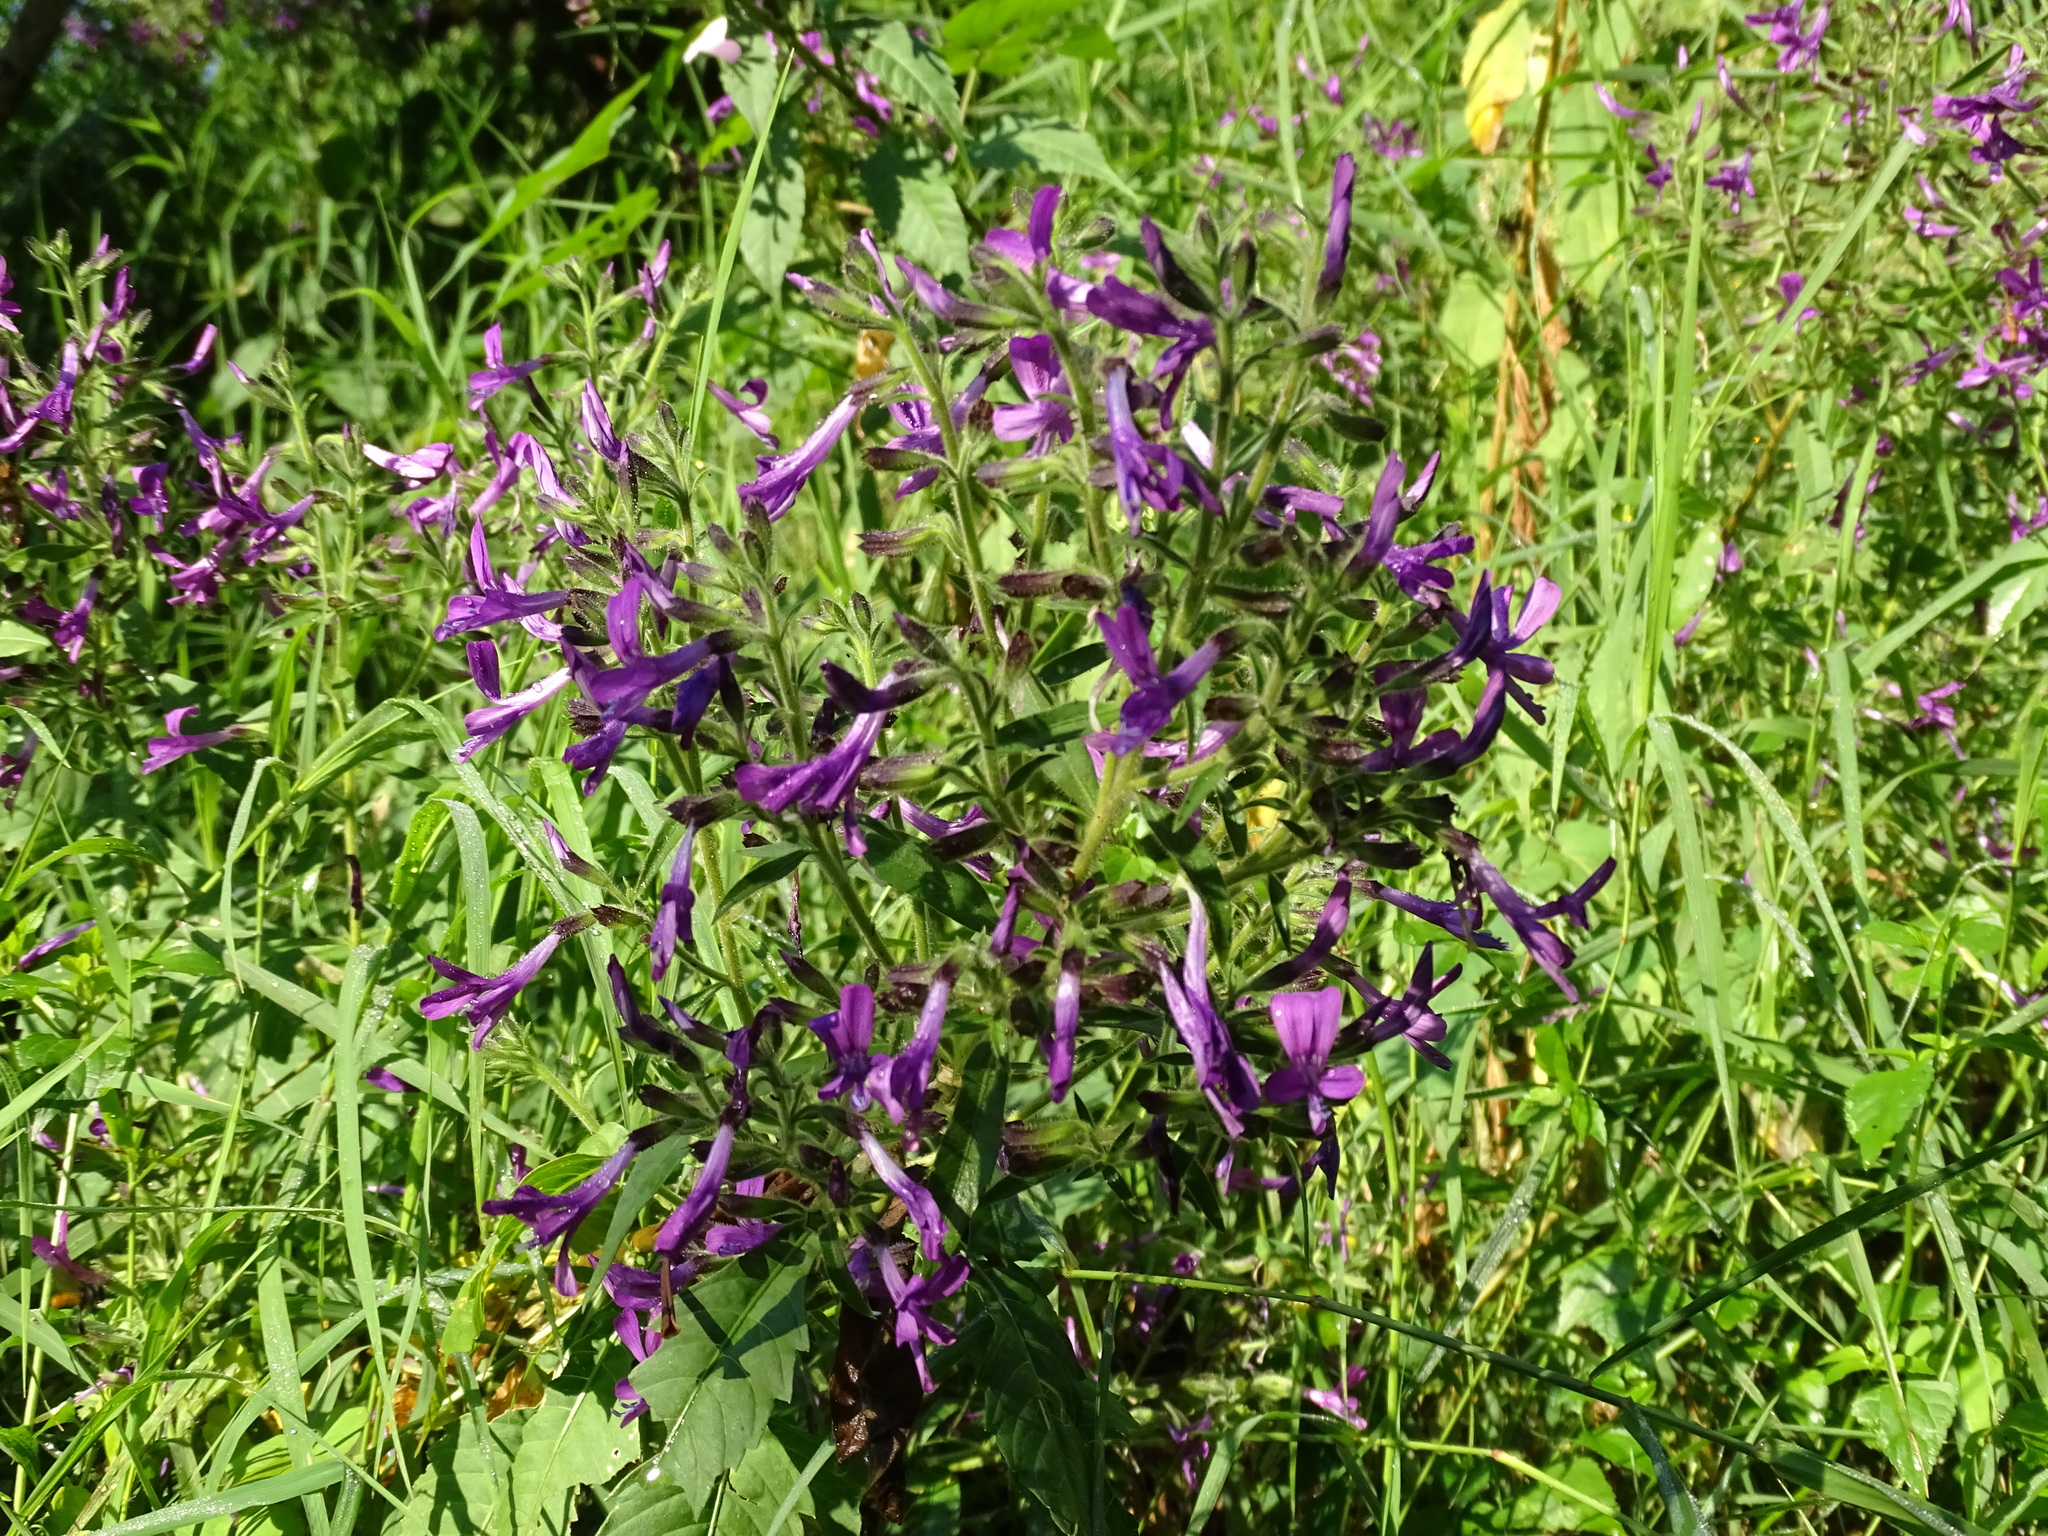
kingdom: Plantae
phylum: Tracheophyta
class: Magnoliopsida
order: Ericales
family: Polemoniaceae
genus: Bonplandia
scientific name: Bonplandia geminiflora
